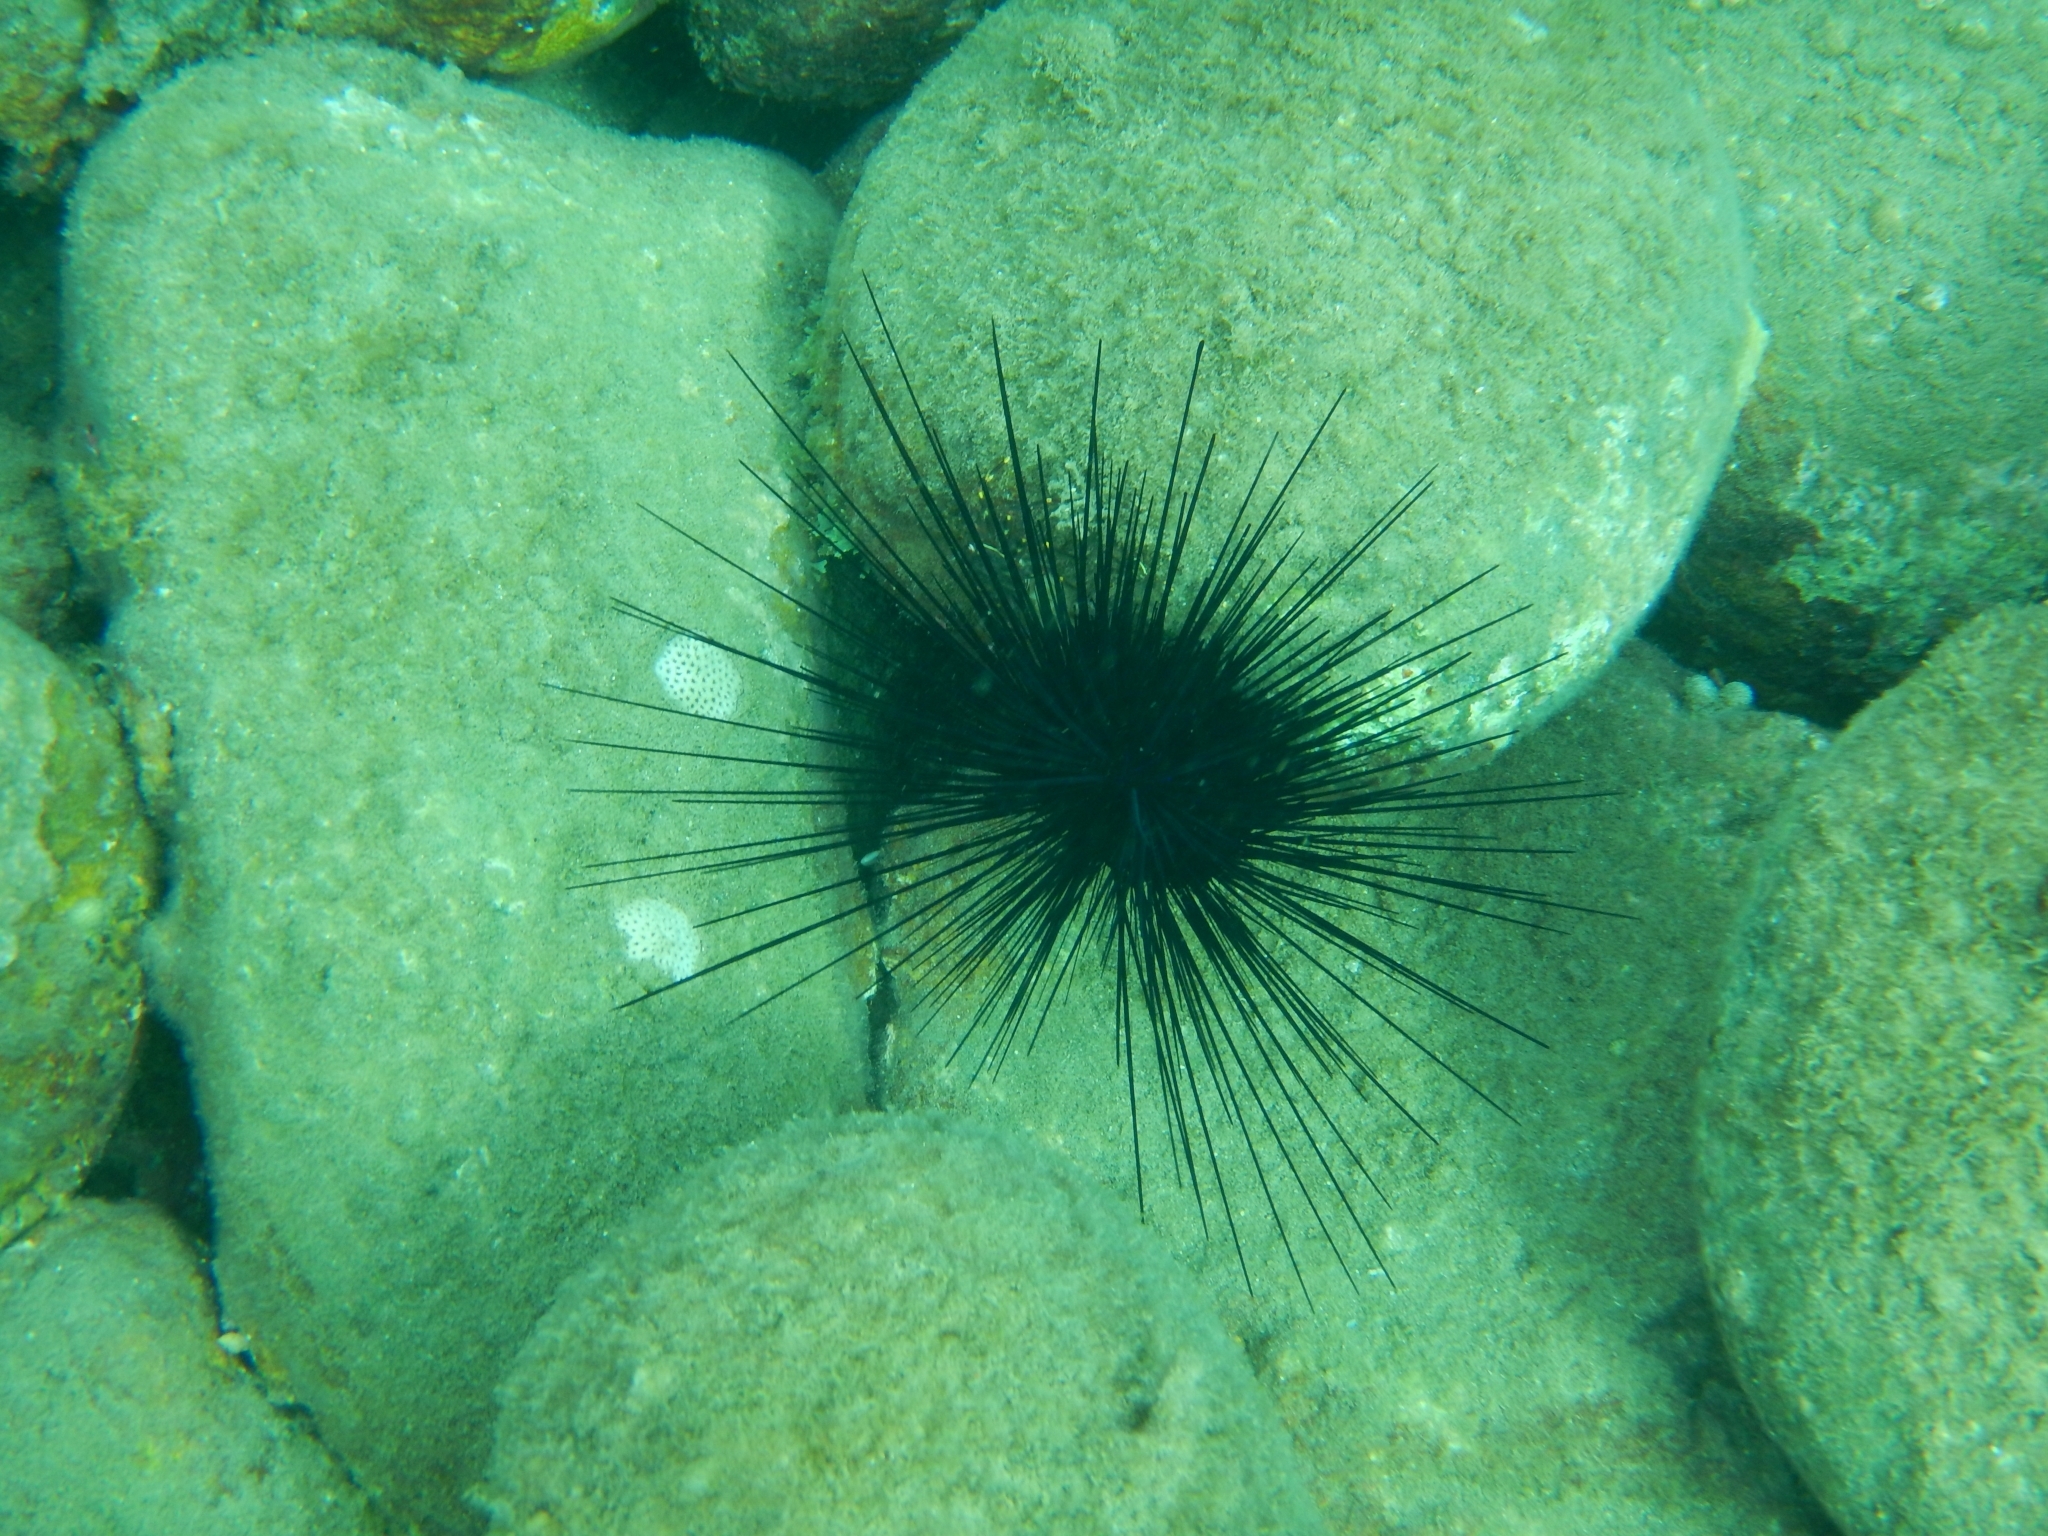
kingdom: Animalia
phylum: Echinodermata
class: Echinoidea
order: Diadematoida
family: Diadematidae
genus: Diadema
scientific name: Diadema antillarum
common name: Spiny urchin
